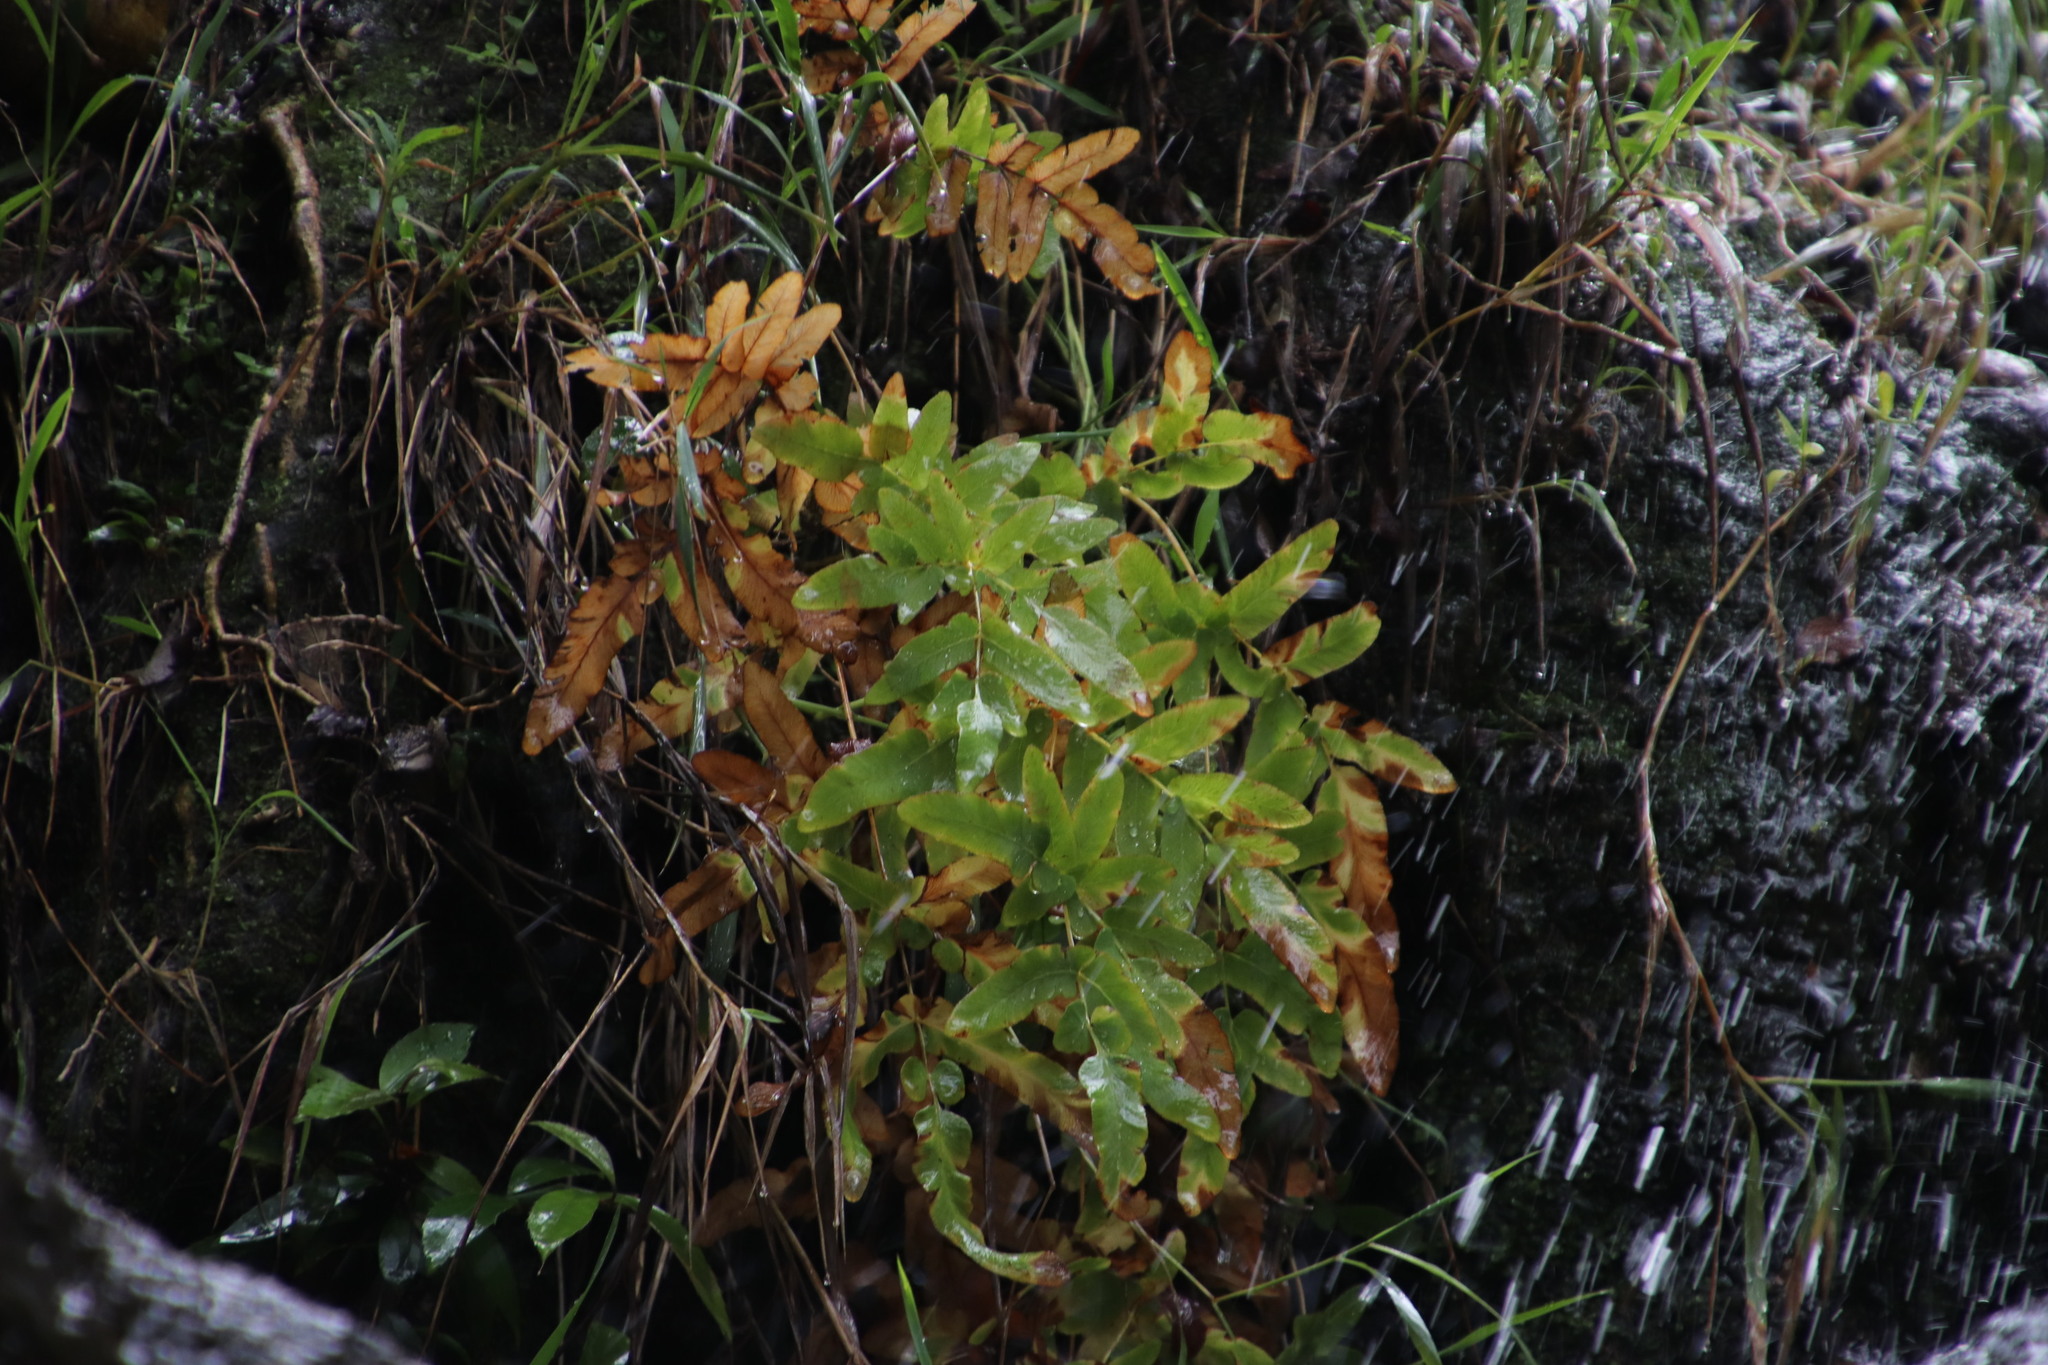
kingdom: Plantae
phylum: Tracheophyta
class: Polypodiopsida
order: Osmundales
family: Osmundaceae
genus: Osmunda
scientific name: Osmunda acuta
